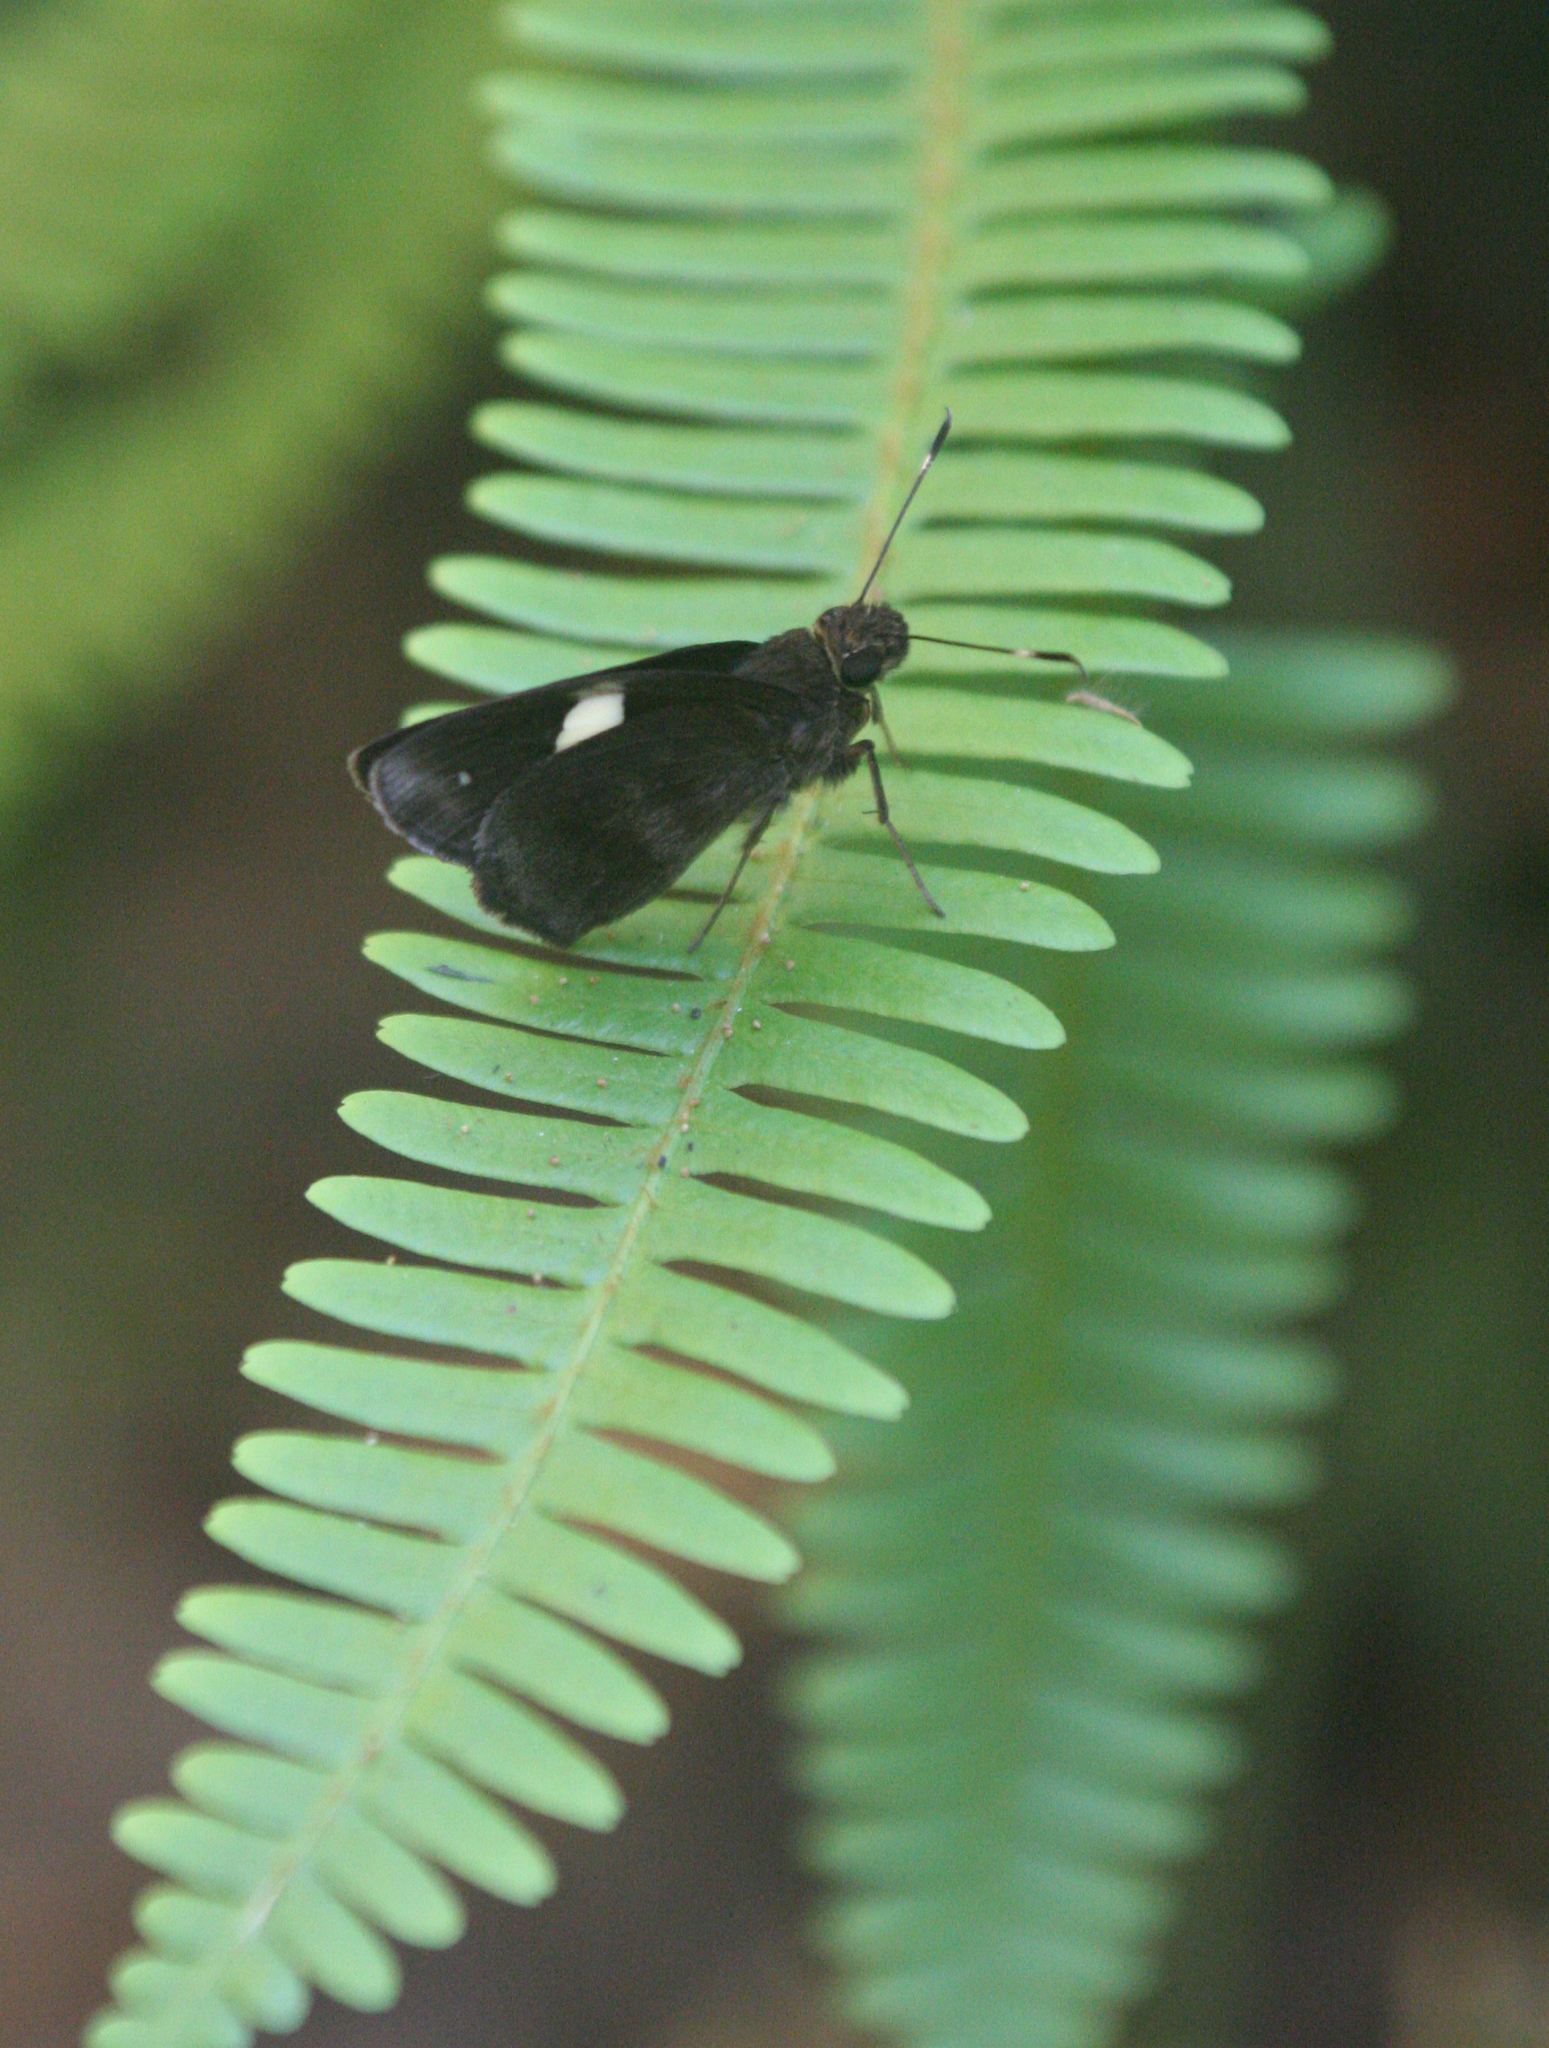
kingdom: Animalia
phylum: Arthropoda
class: Insecta
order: Lepidoptera
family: Hesperiidae
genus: Notocrypta
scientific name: Notocrypta paralysos
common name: Common banded demon
